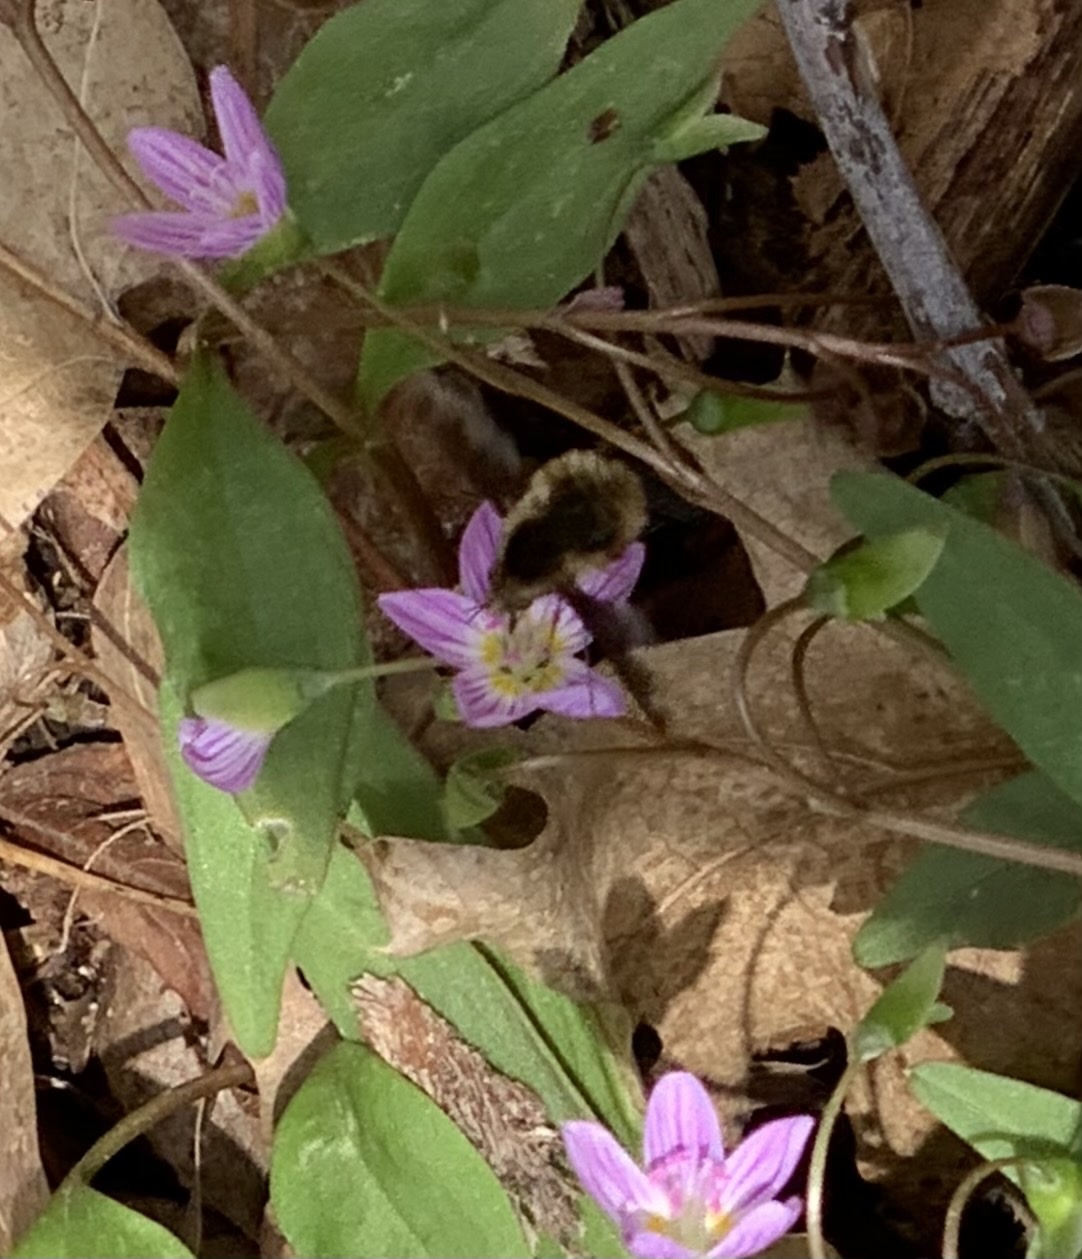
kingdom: Animalia
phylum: Arthropoda
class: Insecta
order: Diptera
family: Bombyliidae
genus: Bombylius
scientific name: Bombylius major
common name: Bee fly
